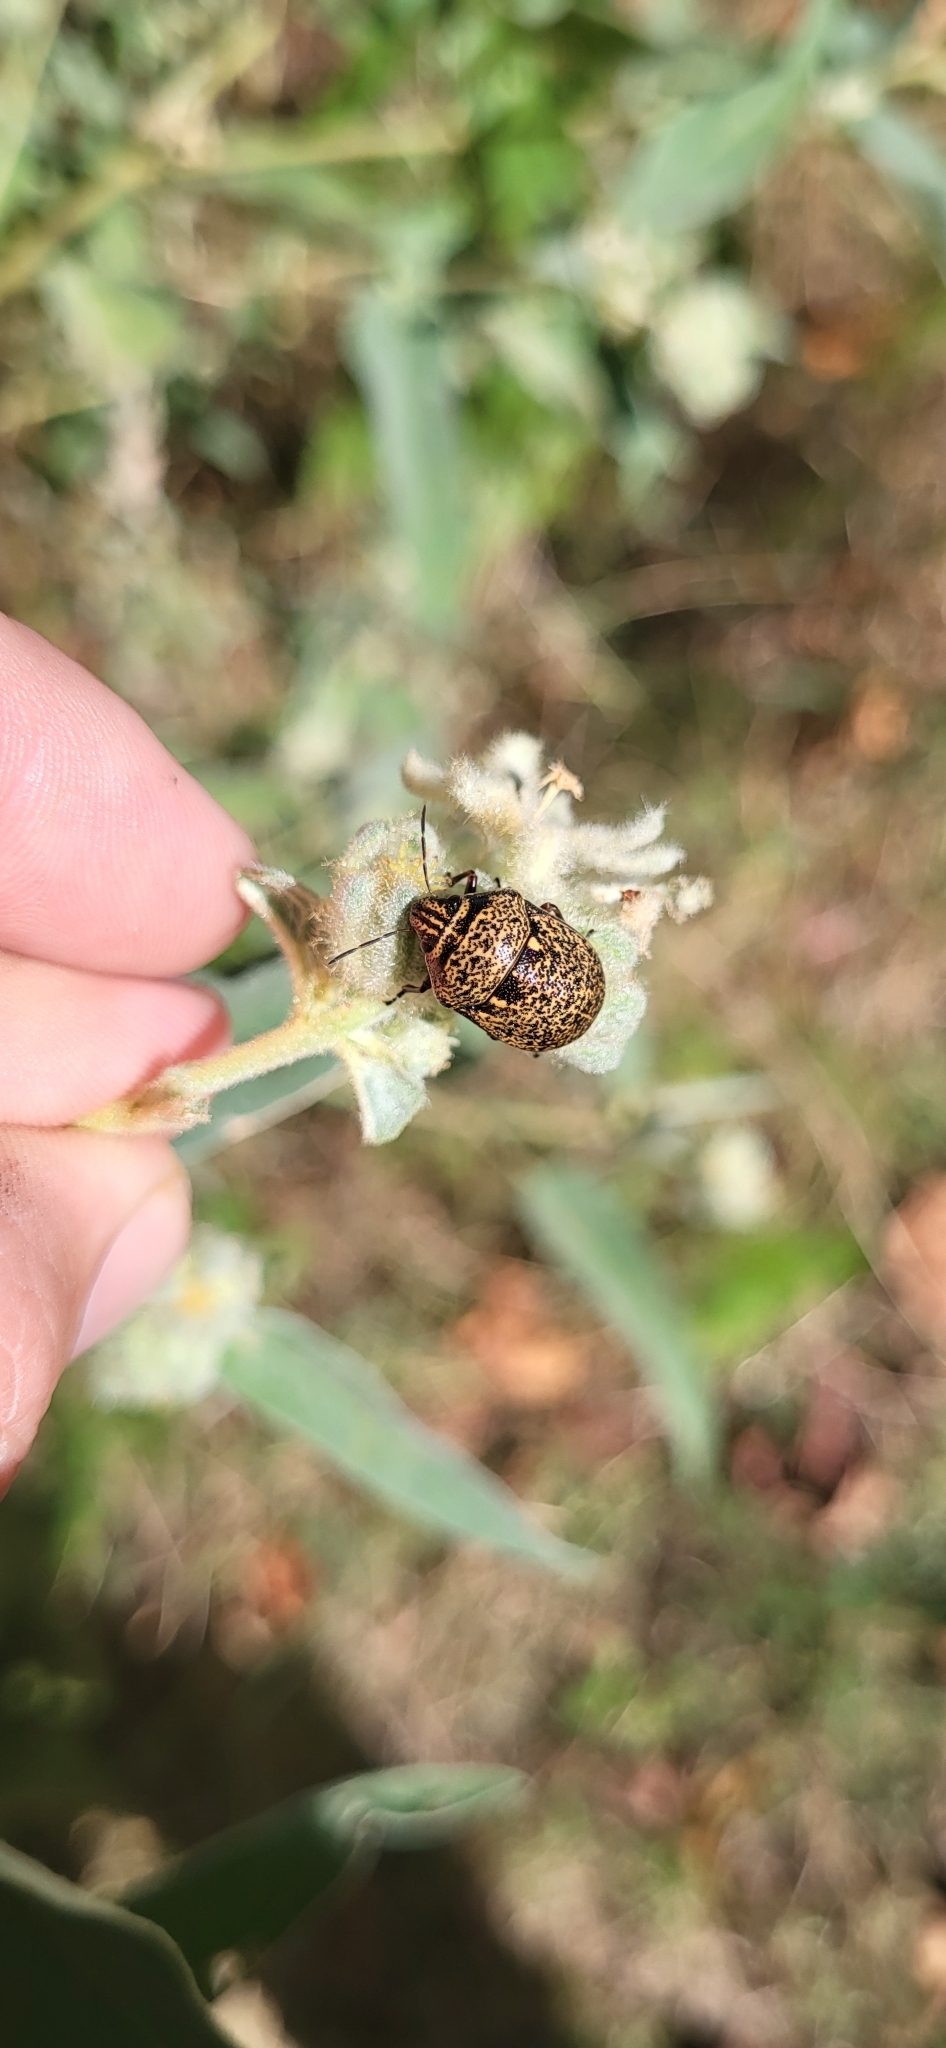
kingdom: Animalia
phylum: Arthropoda
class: Insecta
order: Hemiptera
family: Scutelleridae
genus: Orsilochides
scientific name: Orsilochides guttata
